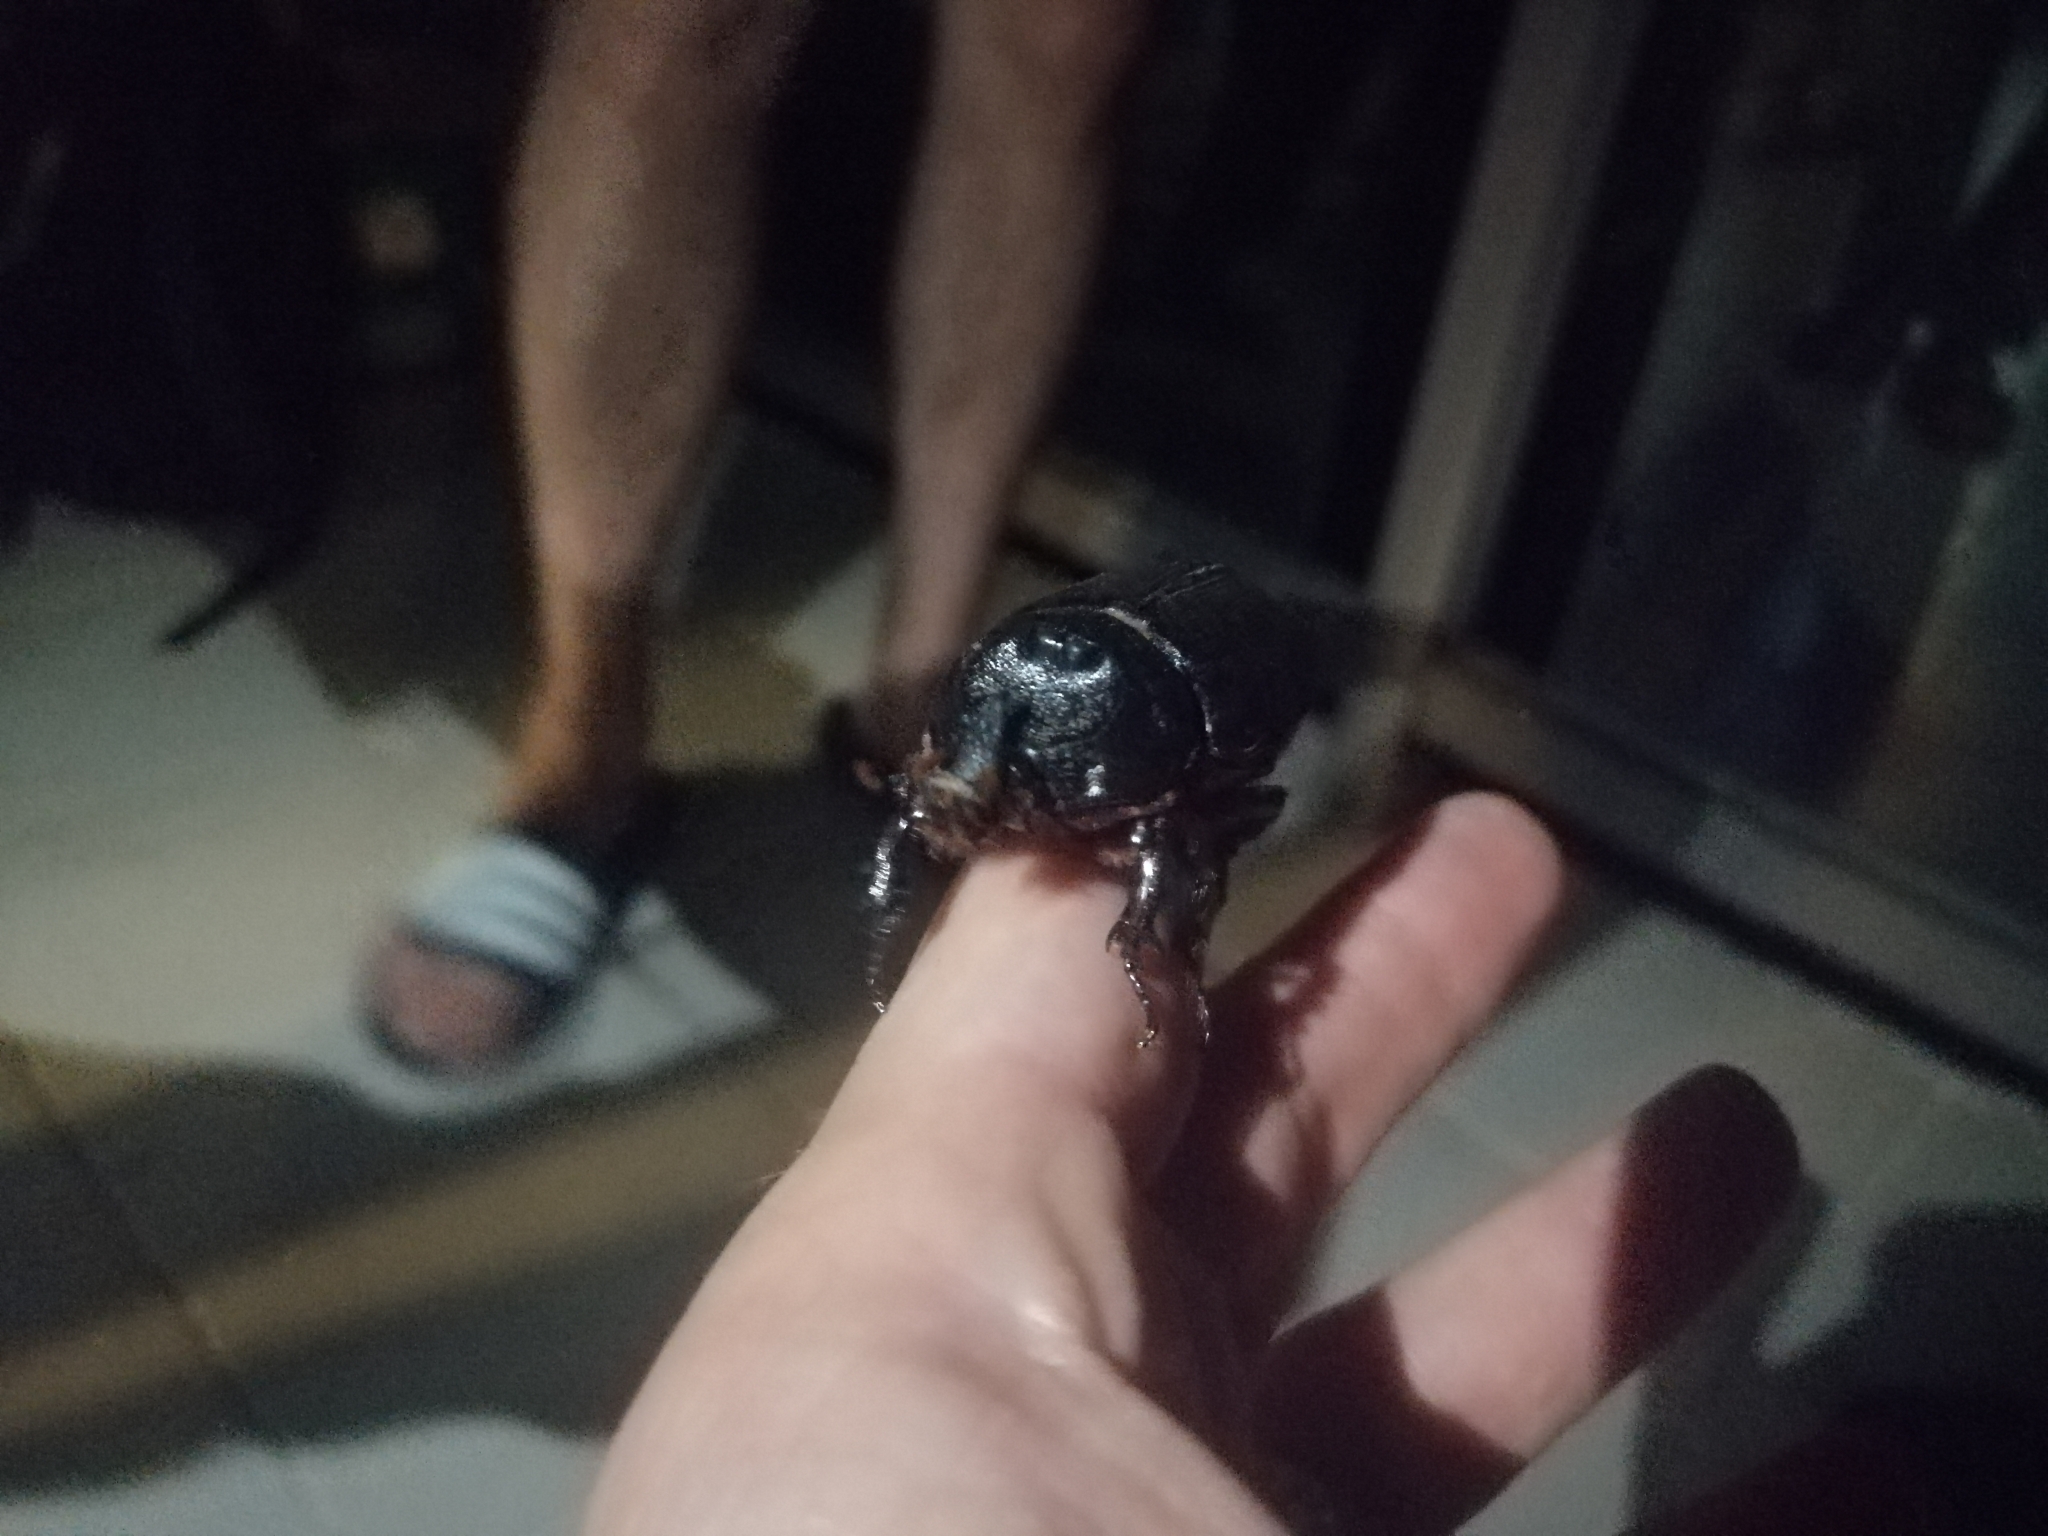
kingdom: Animalia
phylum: Arthropoda
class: Insecta
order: Coleoptera
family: Scarabaeidae
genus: Oryctes
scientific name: Oryctes rhinoceros
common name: Coconut rhinoceros beetle
